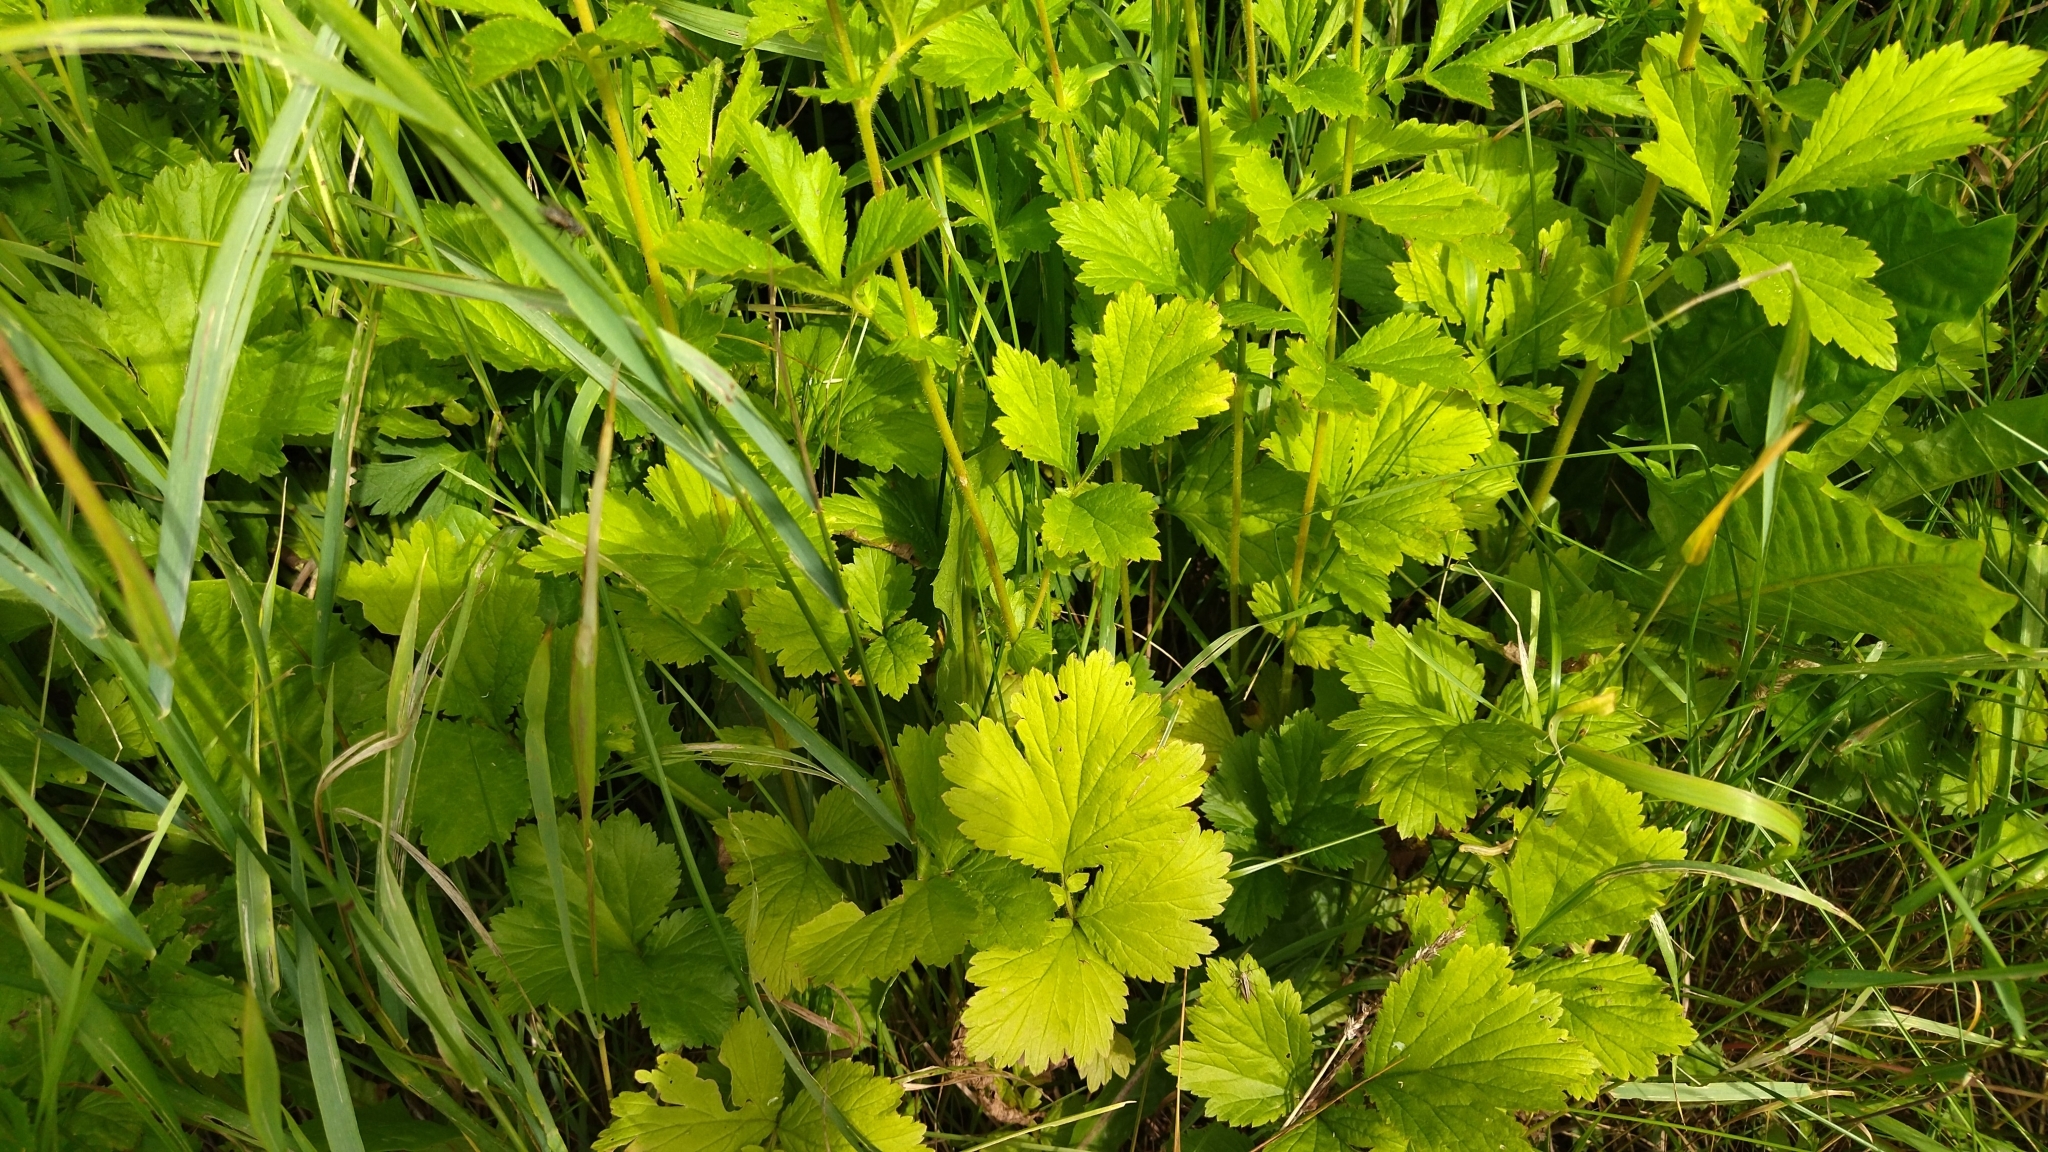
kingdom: Plantae
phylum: Tracheophyta
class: Magnoliopsida
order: Rosales
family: Rosaceae
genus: Geum
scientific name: Geum aleppicum
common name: Yellow avens
